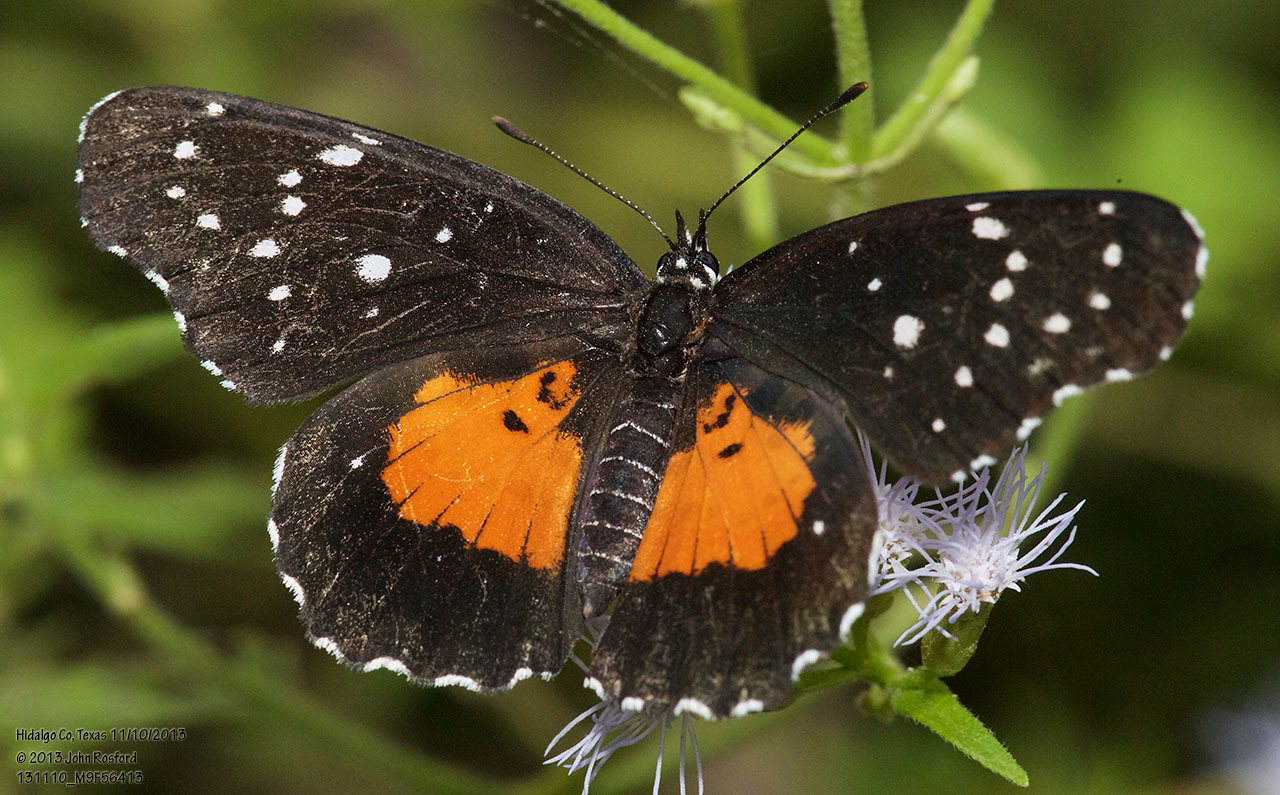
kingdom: Animalia
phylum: Arthropoda
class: Insecta
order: Lepidoptera
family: Nymphalidae
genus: Chlosyne
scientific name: Chlosyne janais
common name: Crimson patch
